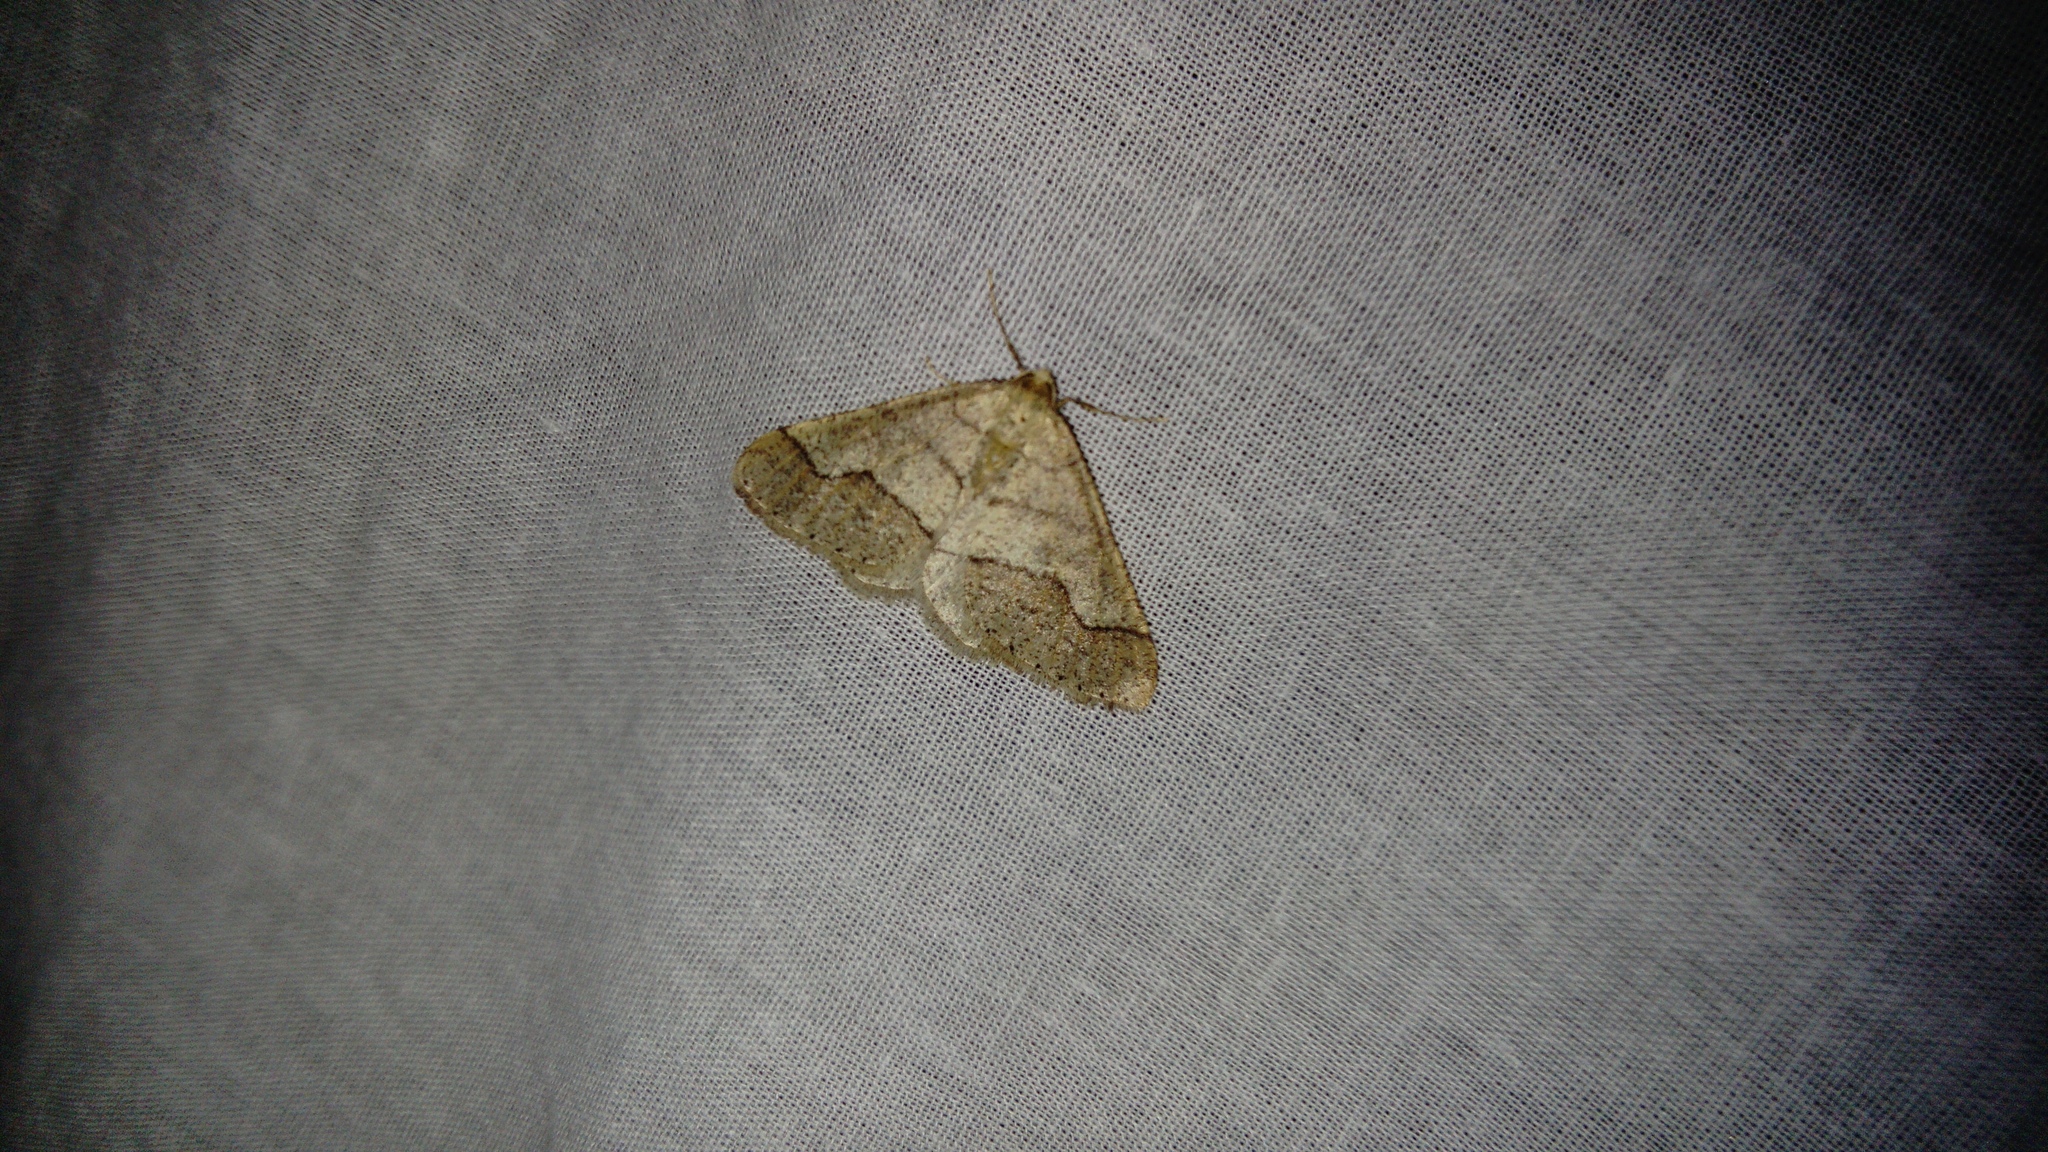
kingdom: Animalia
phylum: Arthropoda
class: Insecta
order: Lepidoptera
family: Geometridae
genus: Agriopis
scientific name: Agriopis marginaria
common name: Dotted border
